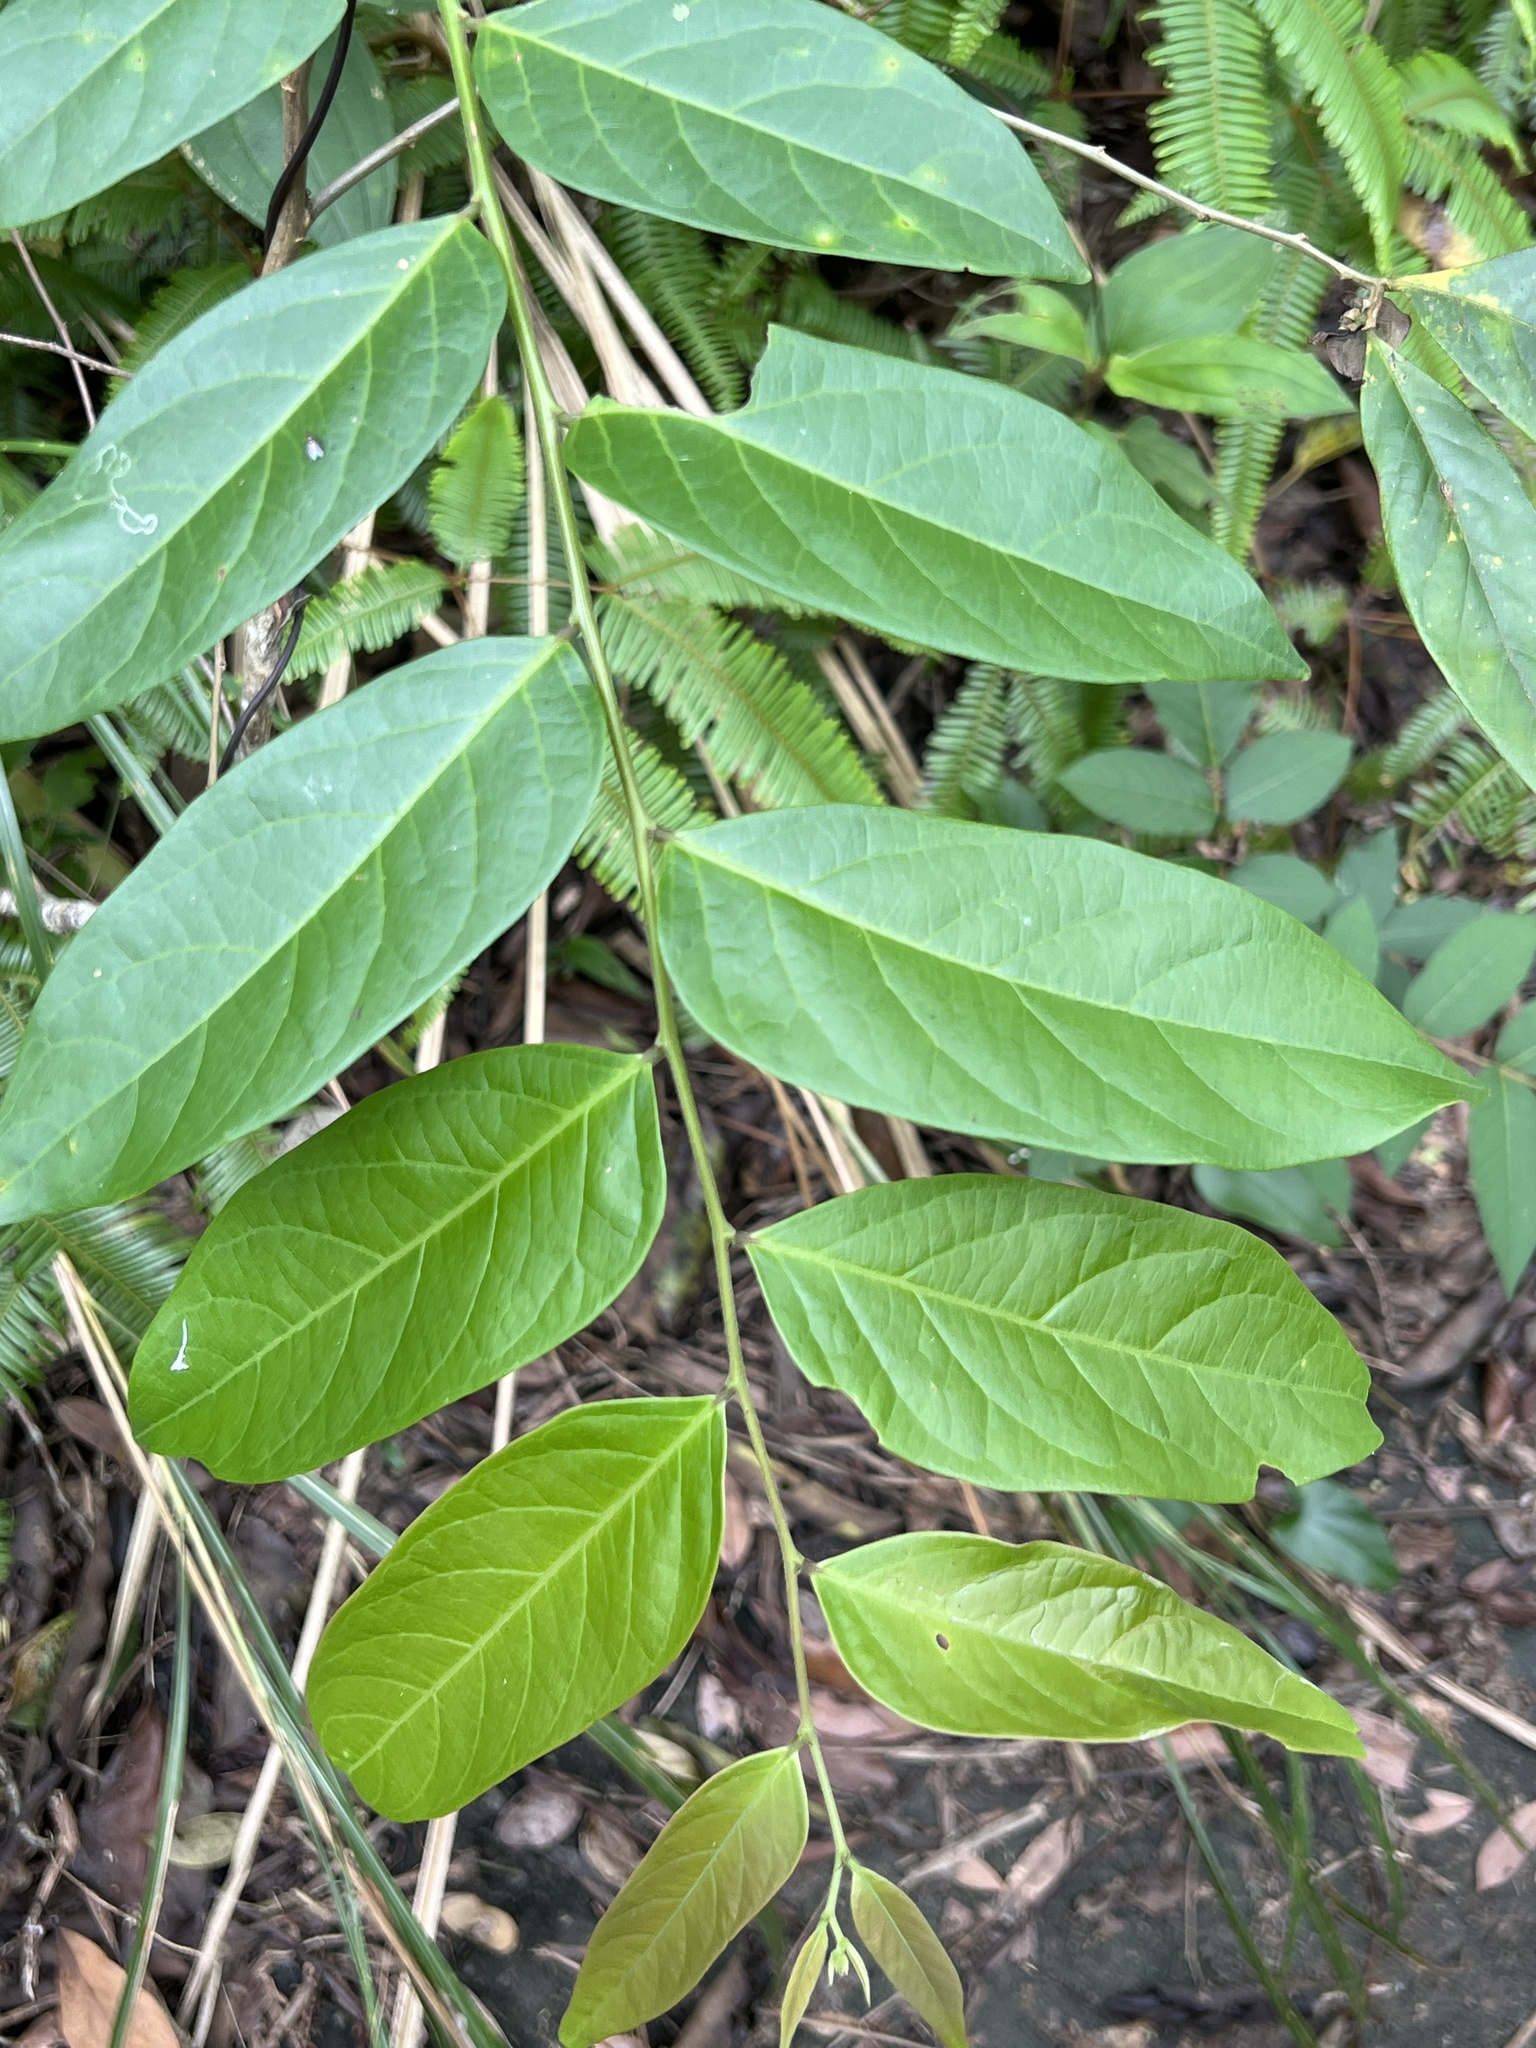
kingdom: Plantae
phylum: Tracheophyta
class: Magnoliopsida
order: Malpighiales
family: Phyllanthaceae
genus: Glochidion
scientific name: Glochidion acuminatum
